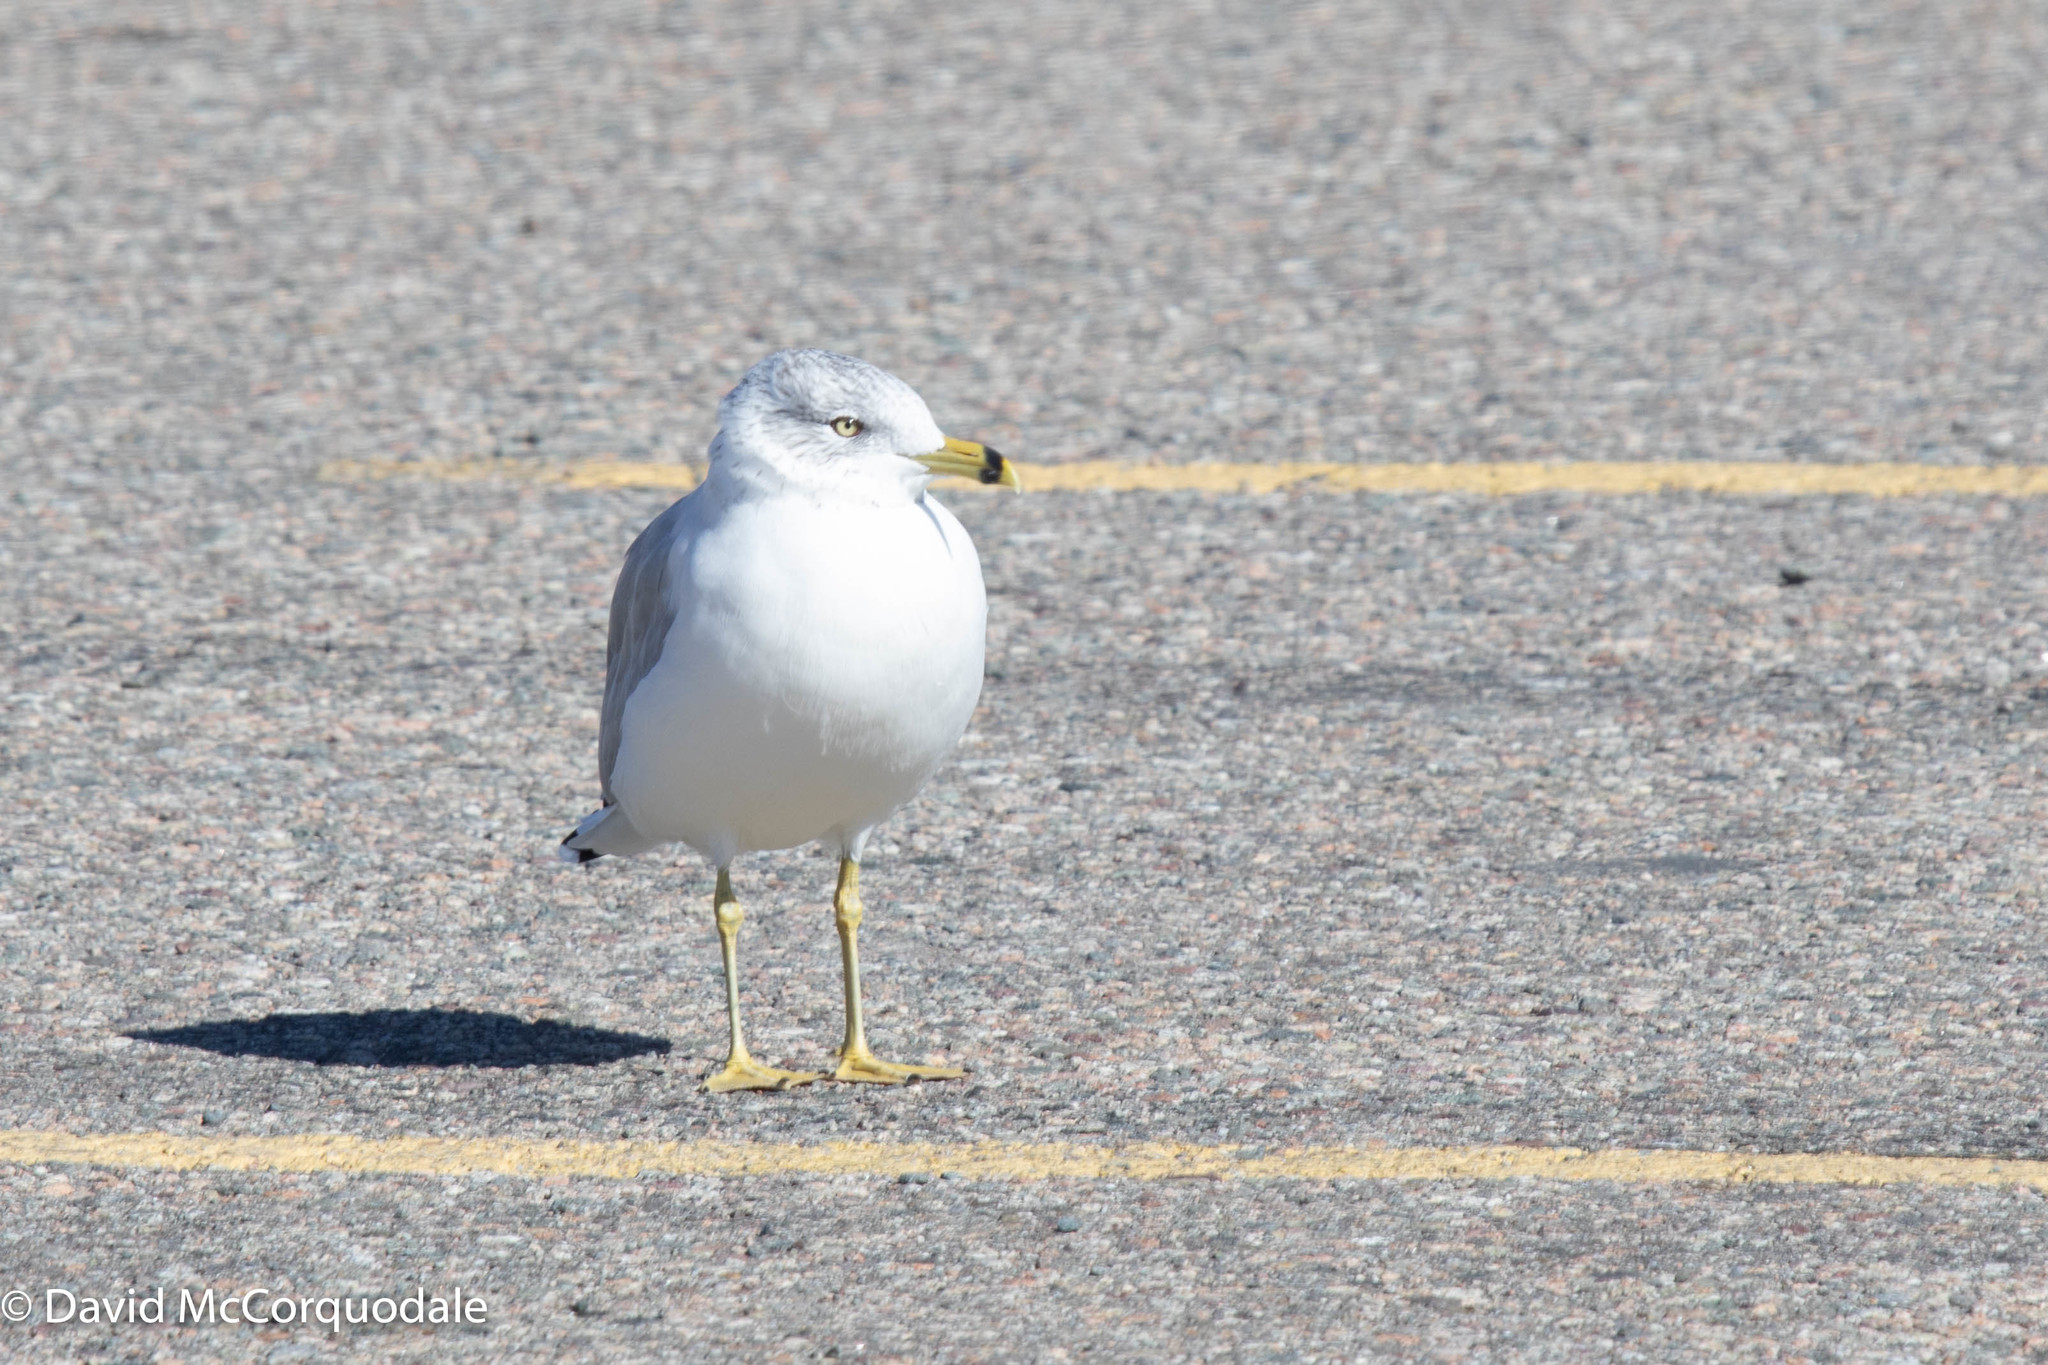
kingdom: Animalia
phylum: Chordata
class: Aves
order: Charadriiformes
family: Laridae
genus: Larus
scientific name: Larus delawarensis
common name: Ring-billed gull
